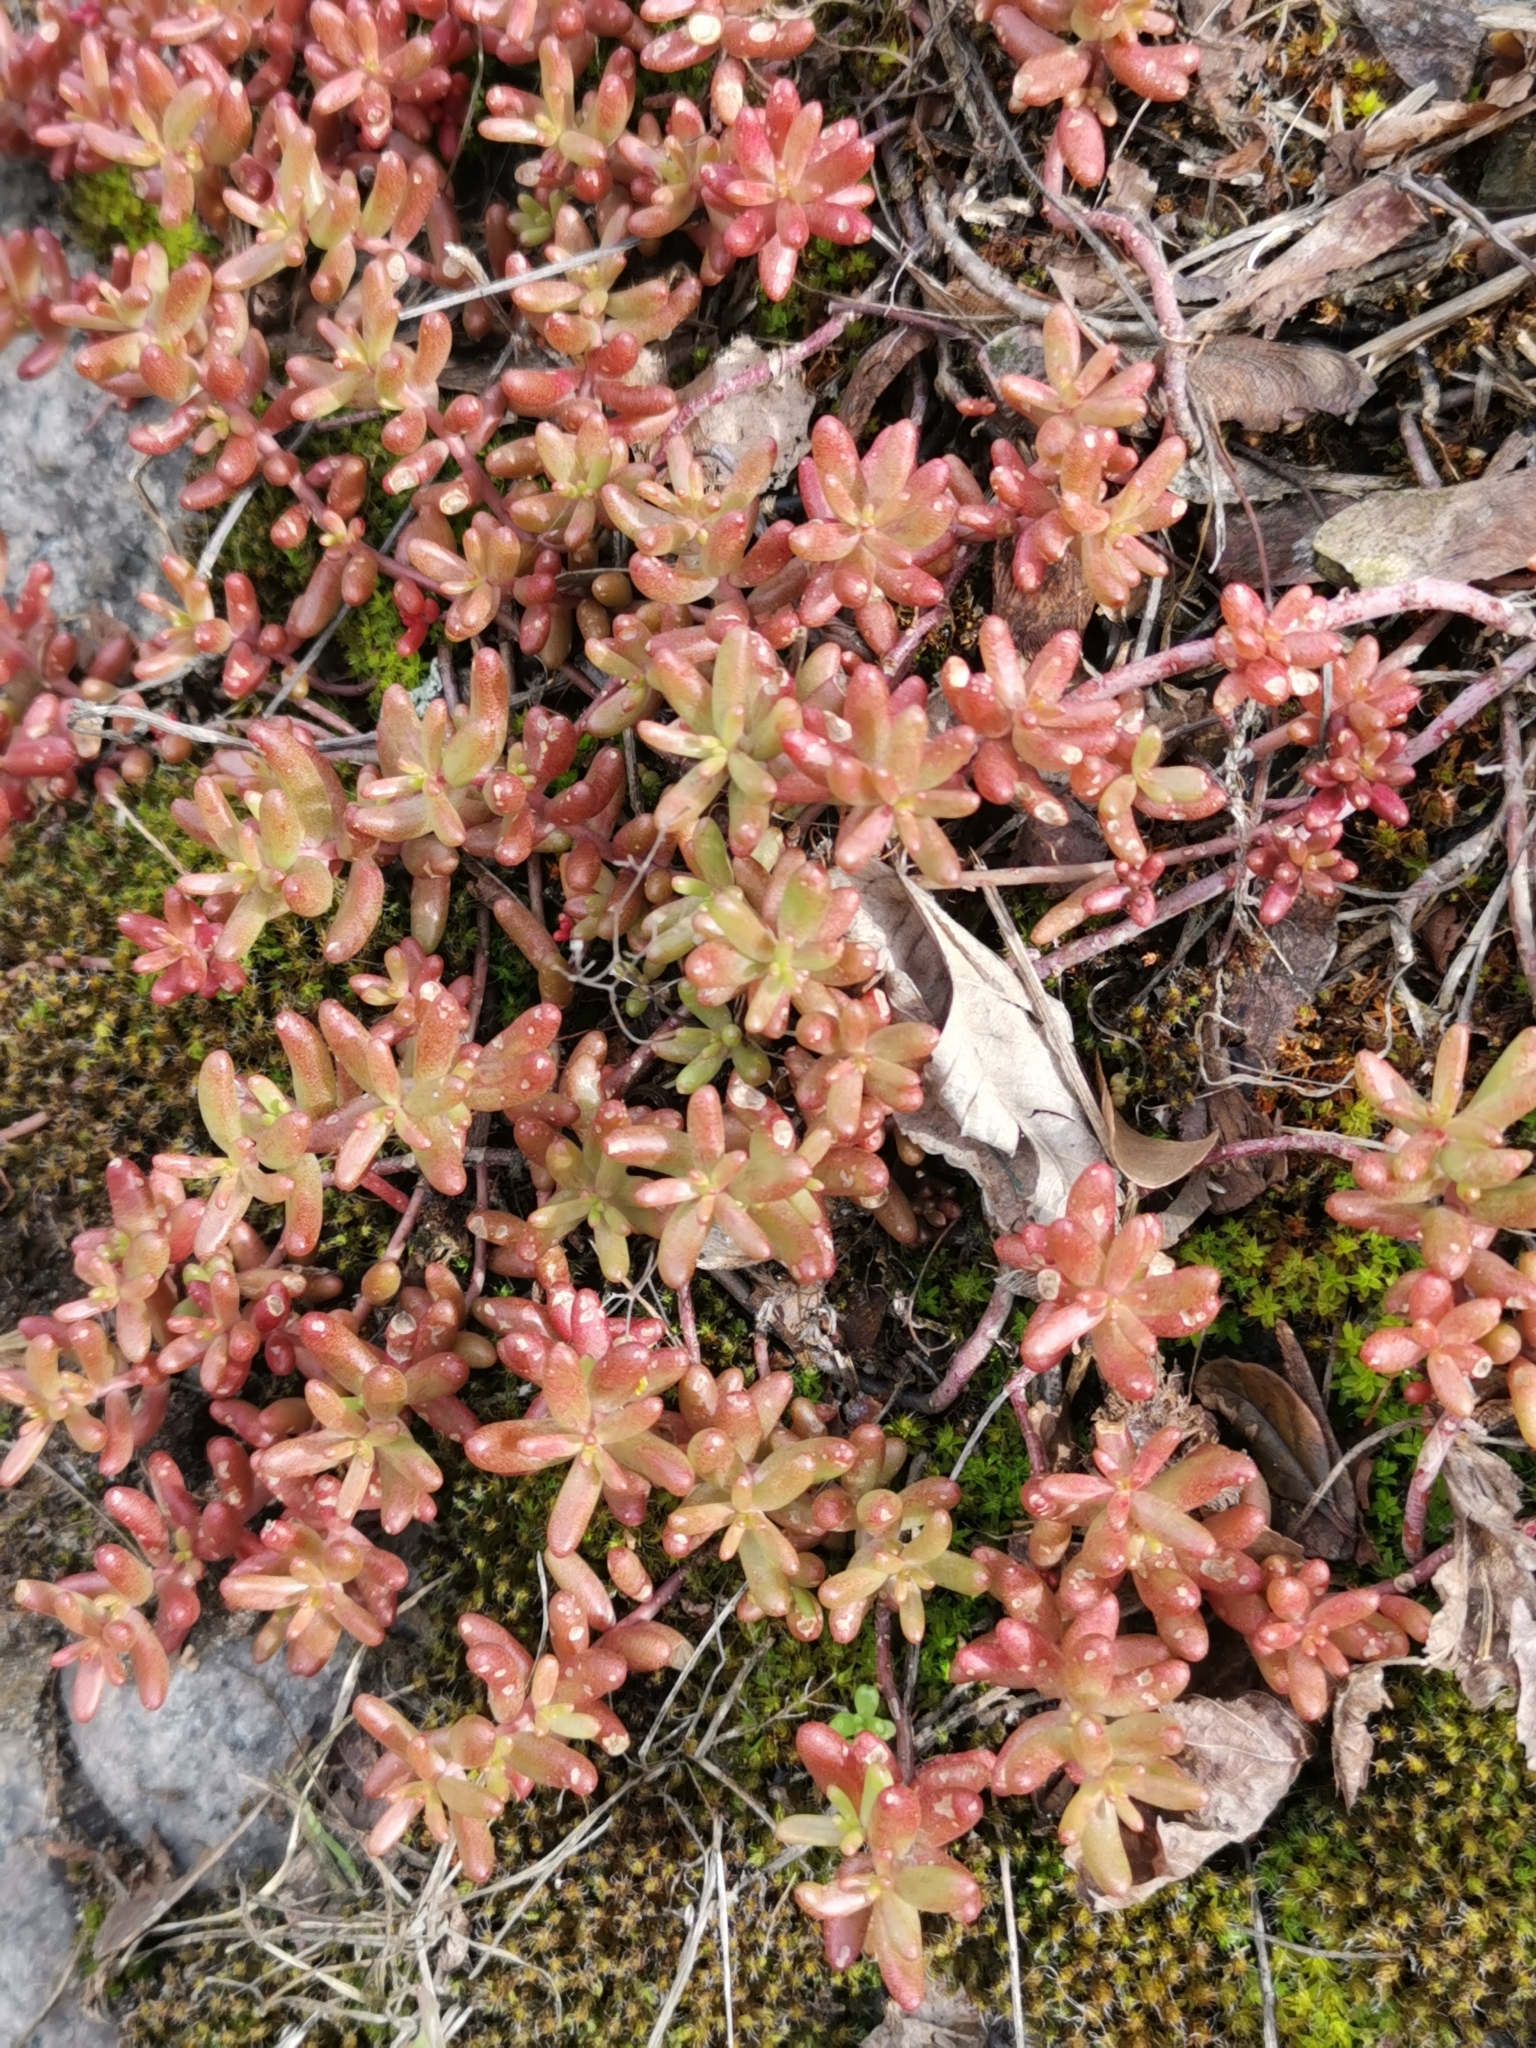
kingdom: Plantae
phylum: Tracheophyta
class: Magnoliopsida
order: Saxifragales
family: Crassulaceae
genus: Sedum
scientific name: Sedum album
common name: White stonecrop
